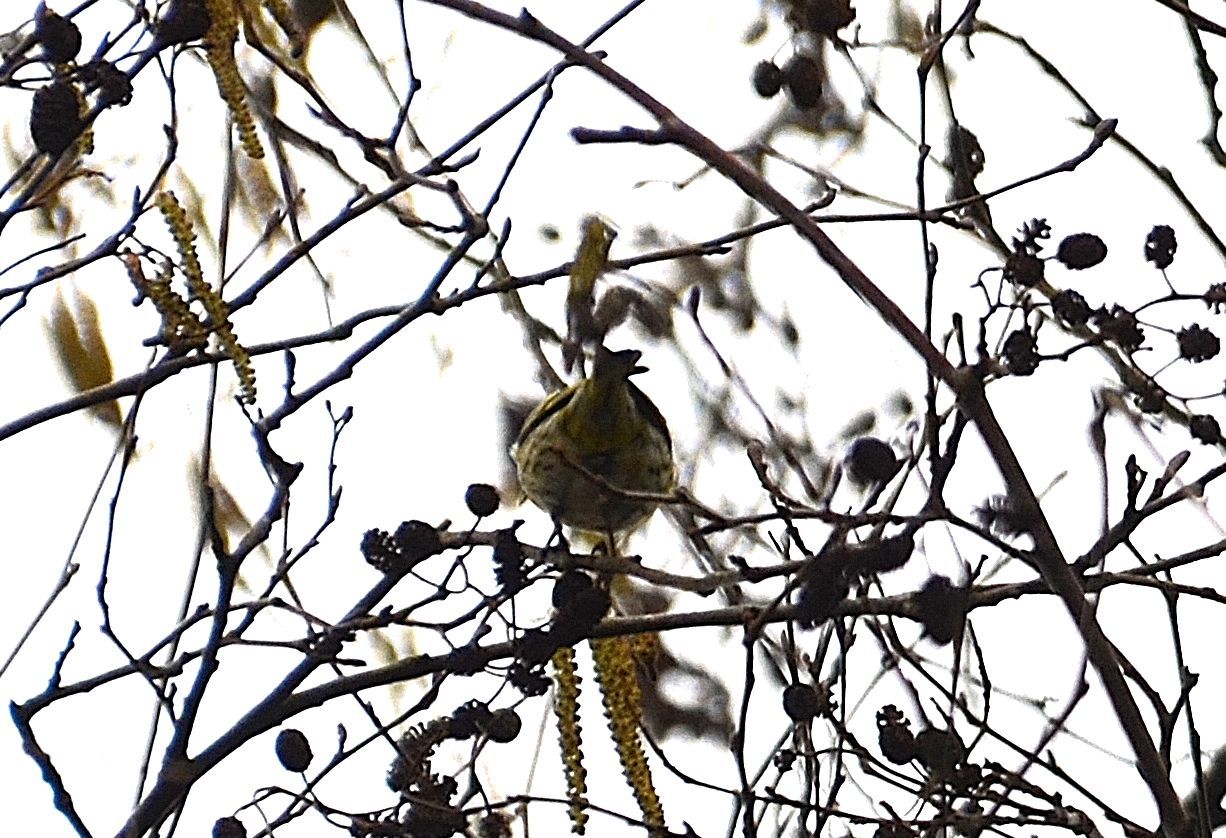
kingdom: Animalia
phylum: Chordata
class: Aves
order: Passeriformes
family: Fringillidae
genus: Spinus
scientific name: Spinus spinus
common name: Eurasian siskin
